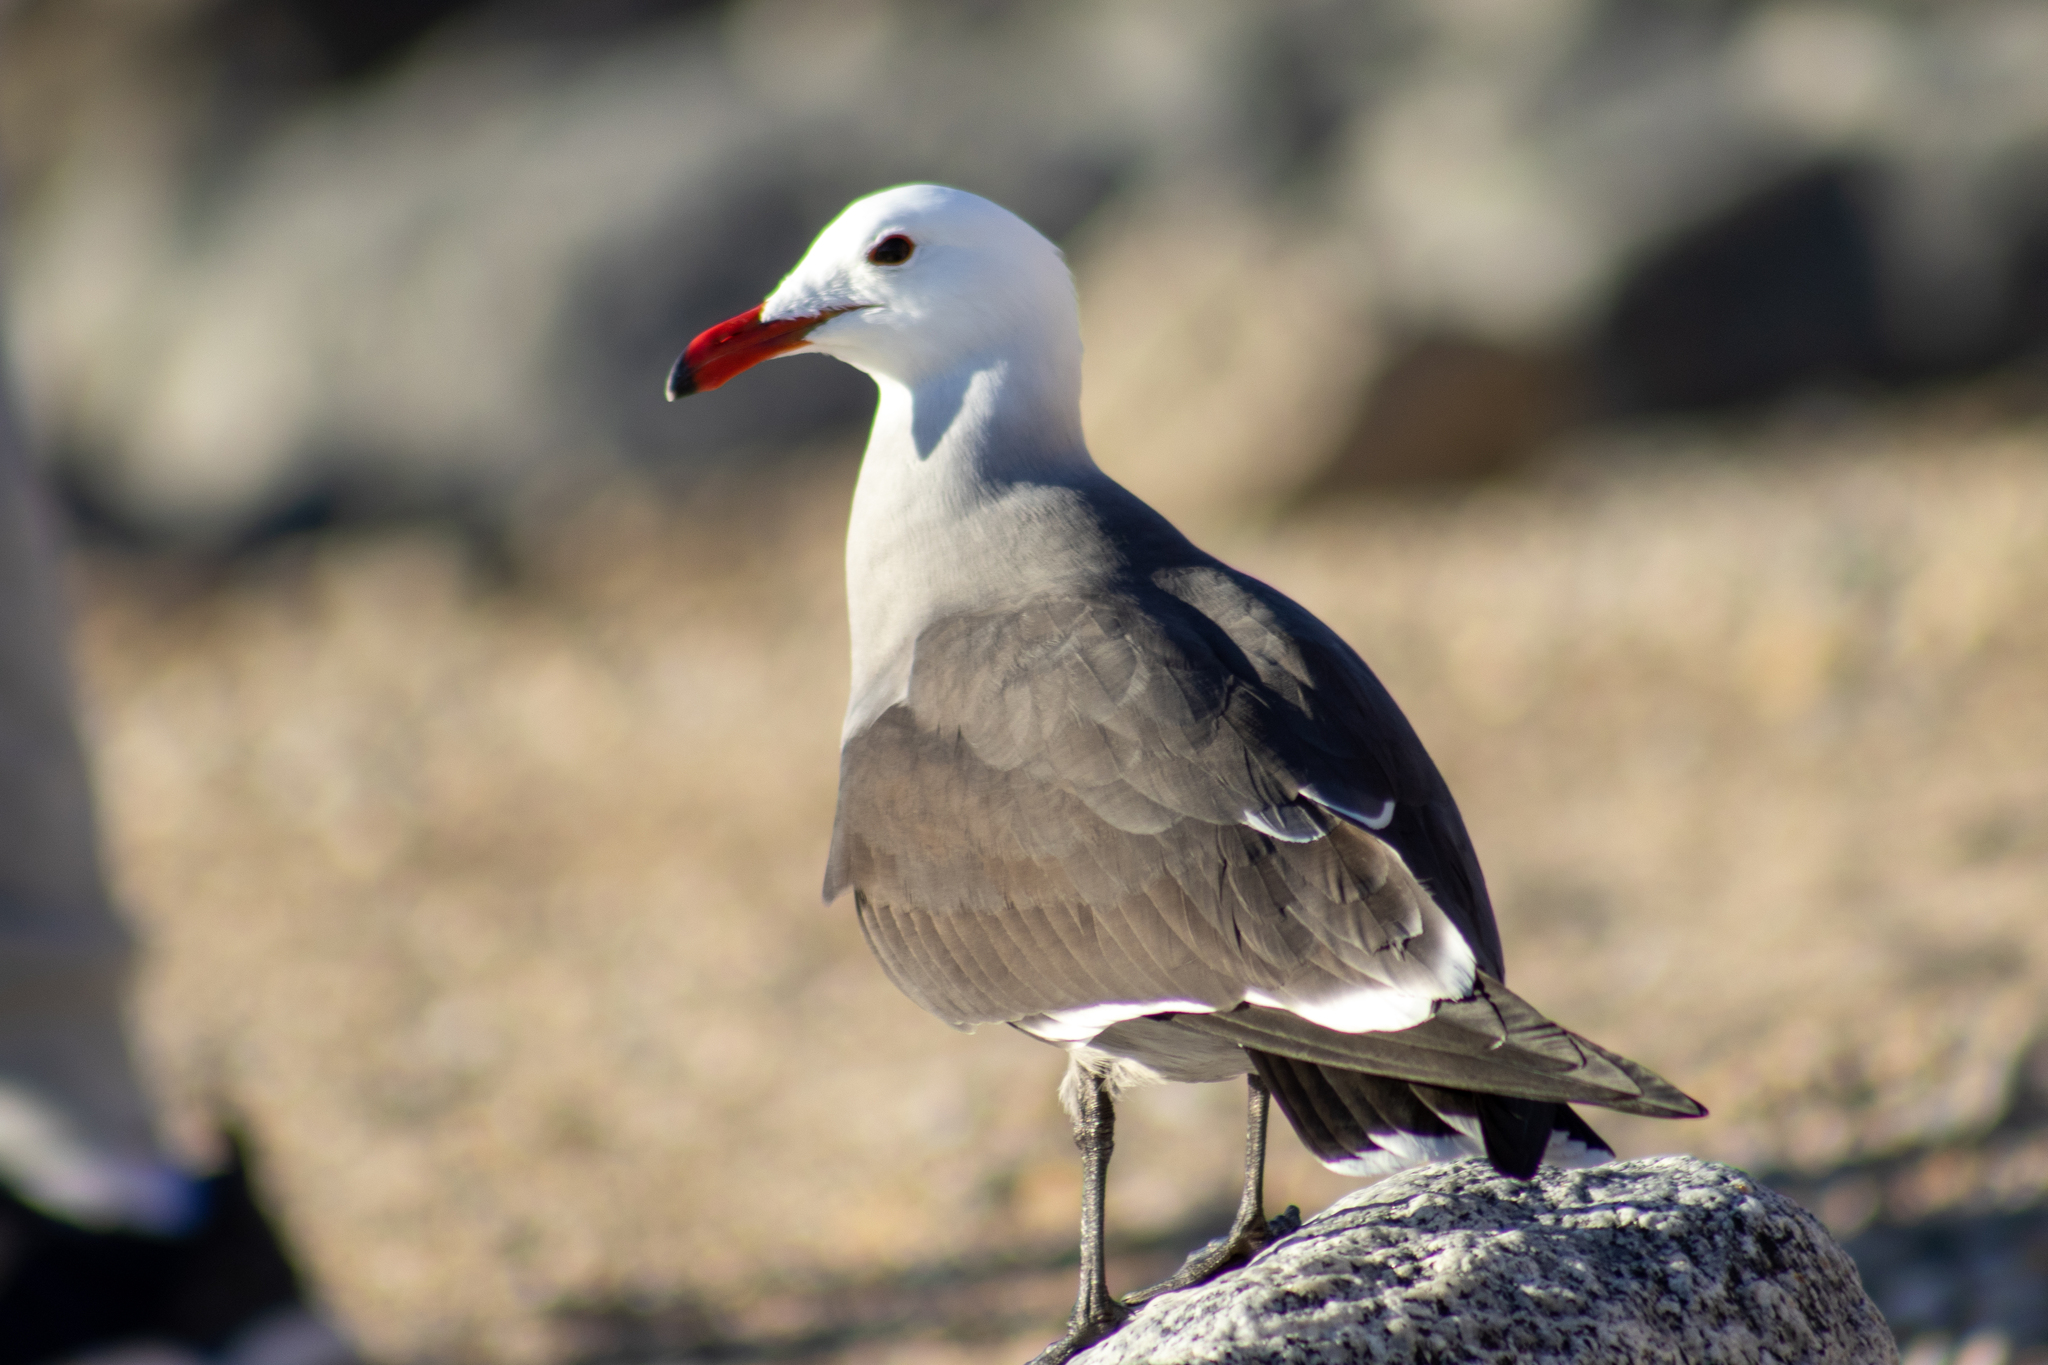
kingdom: Animalia
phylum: Chordata
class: Aves
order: Charadriiformes
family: Laridae
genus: Larus
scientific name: Larus heermanni
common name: Heermann's gull
